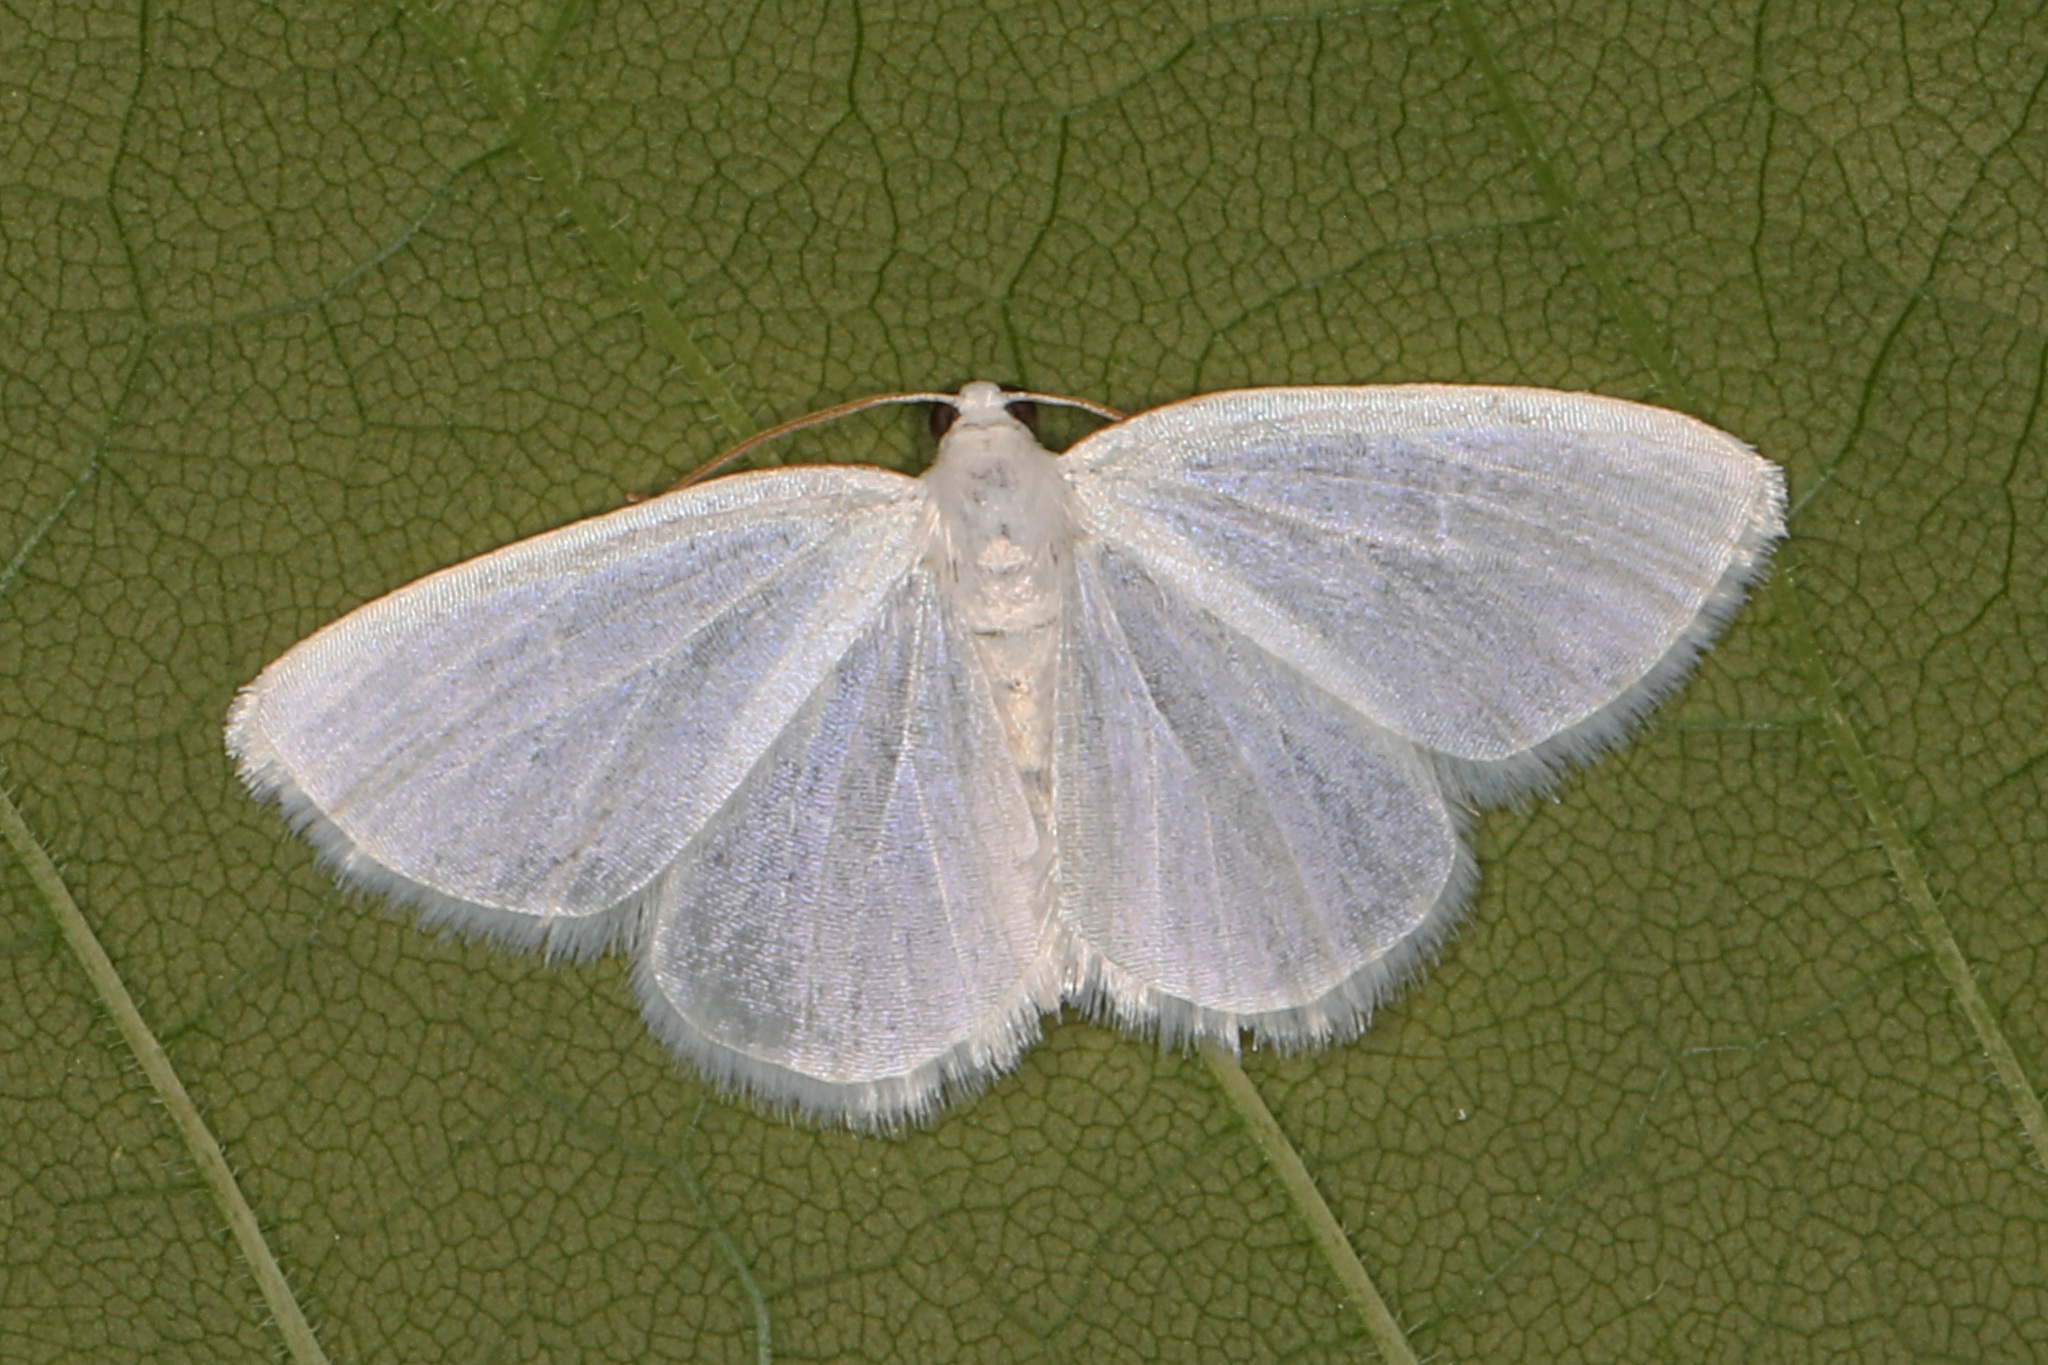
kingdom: Animalia
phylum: Arthropoda
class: Insecta
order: Lepidoptera
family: Geometridae
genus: Lomographa
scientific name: Lomographa vestaliata
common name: White spring moth
